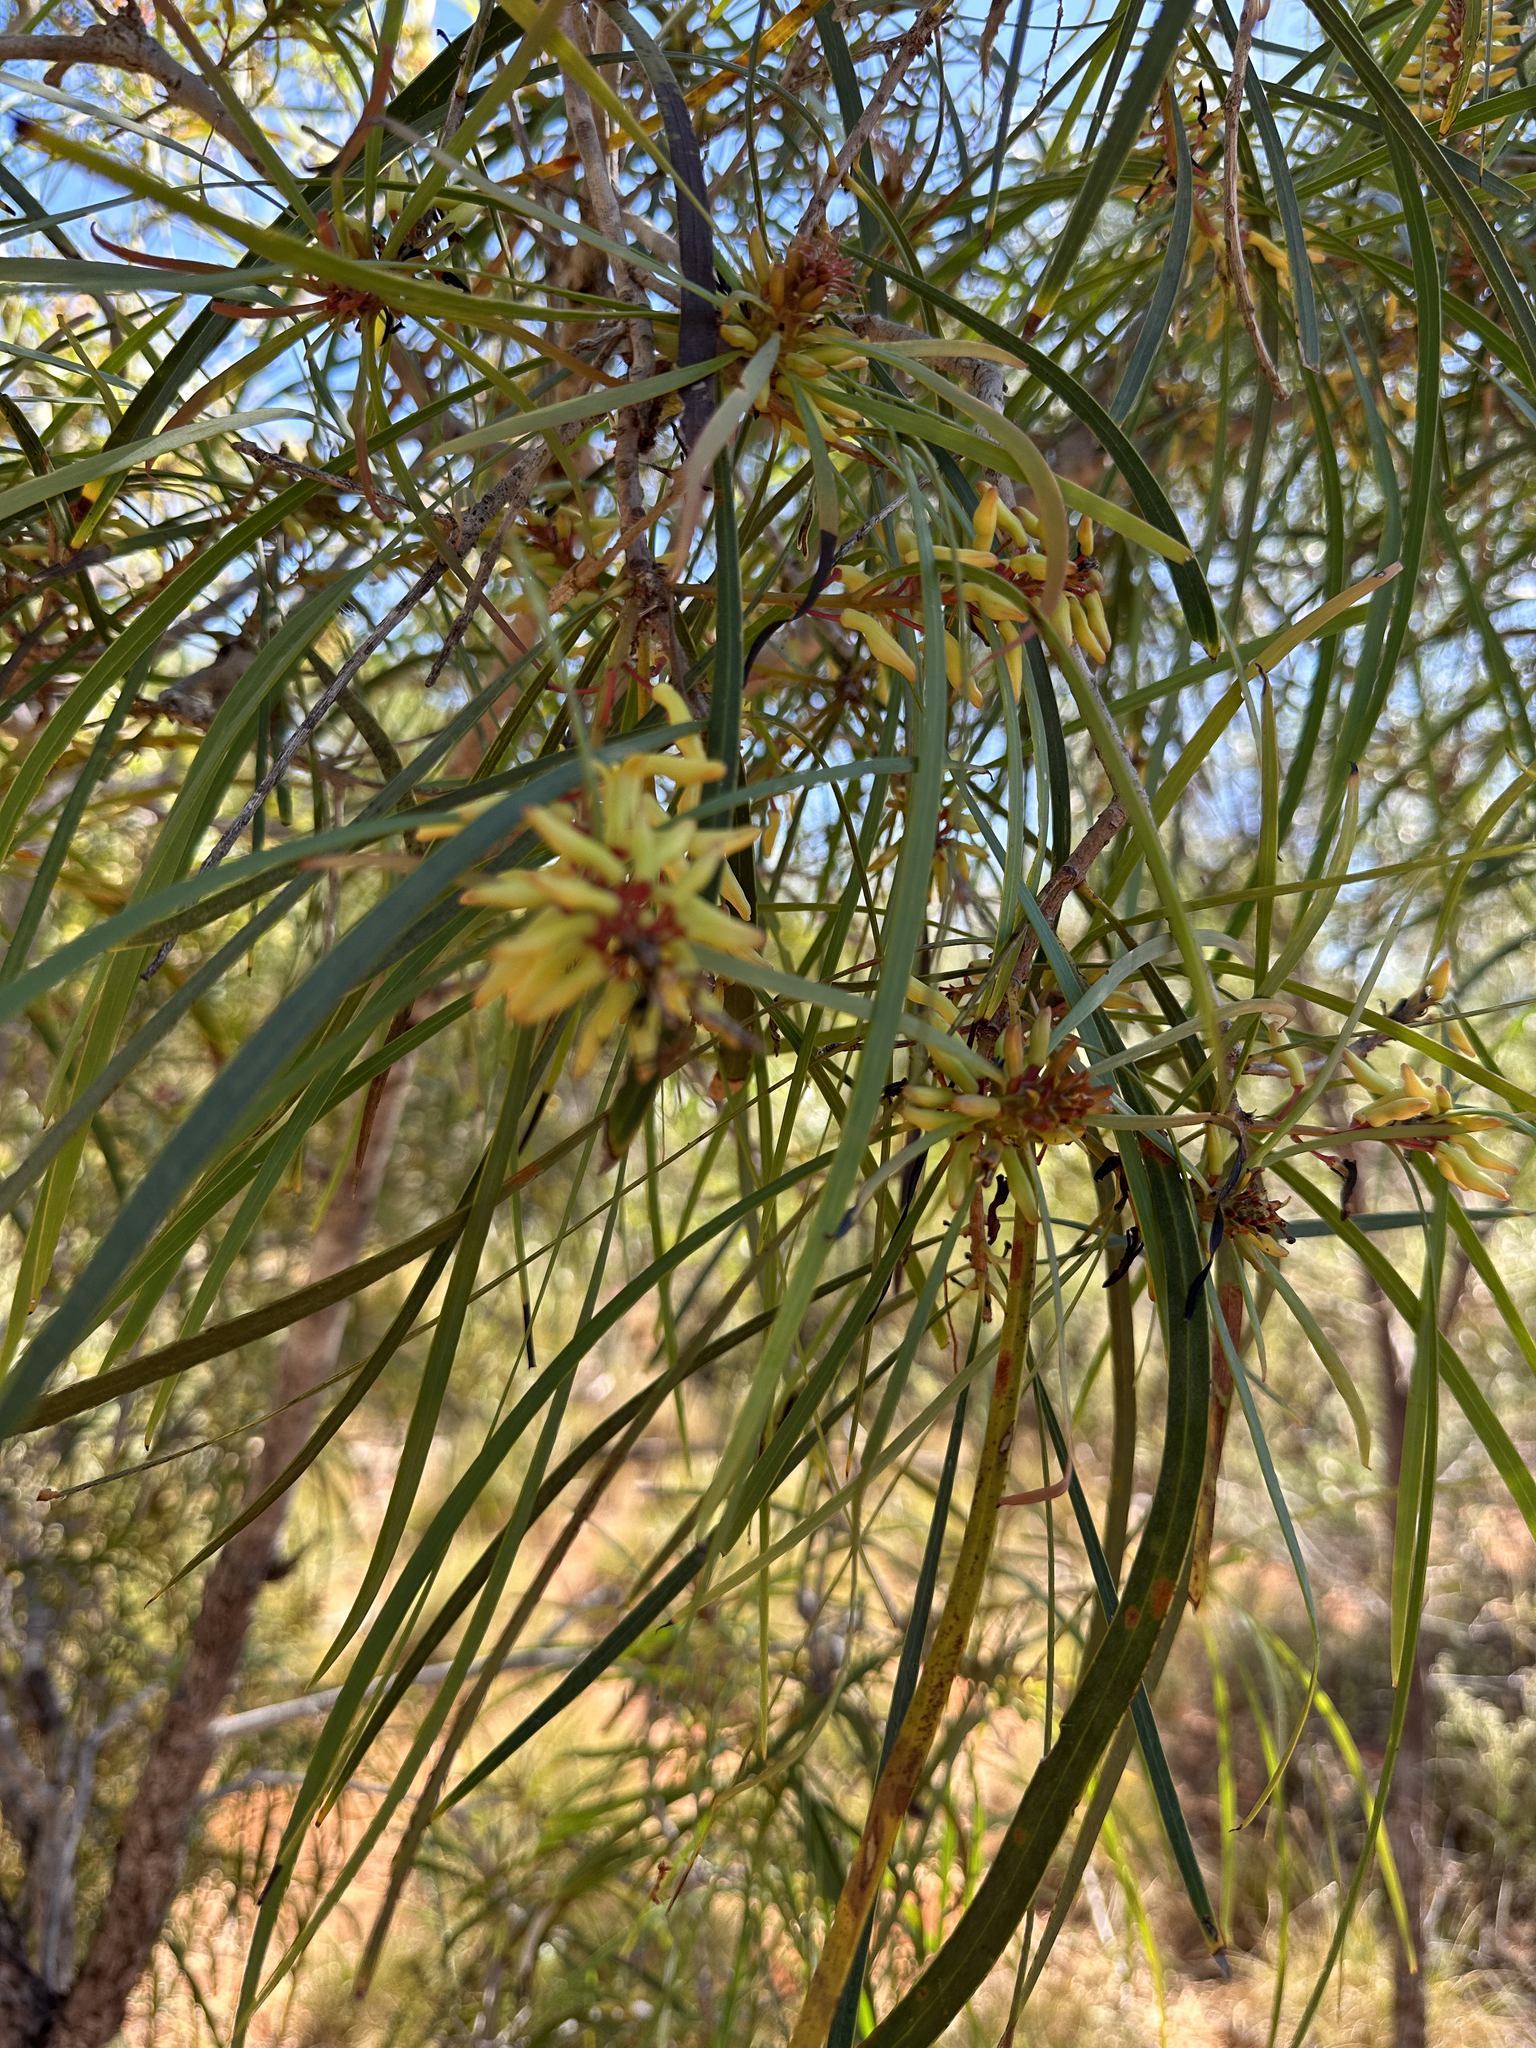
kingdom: Plantae
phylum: Tracheophyta
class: Magnoliopsida
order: Proteales
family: Proteaceae
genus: Persoonia
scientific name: Persoonia falcata
